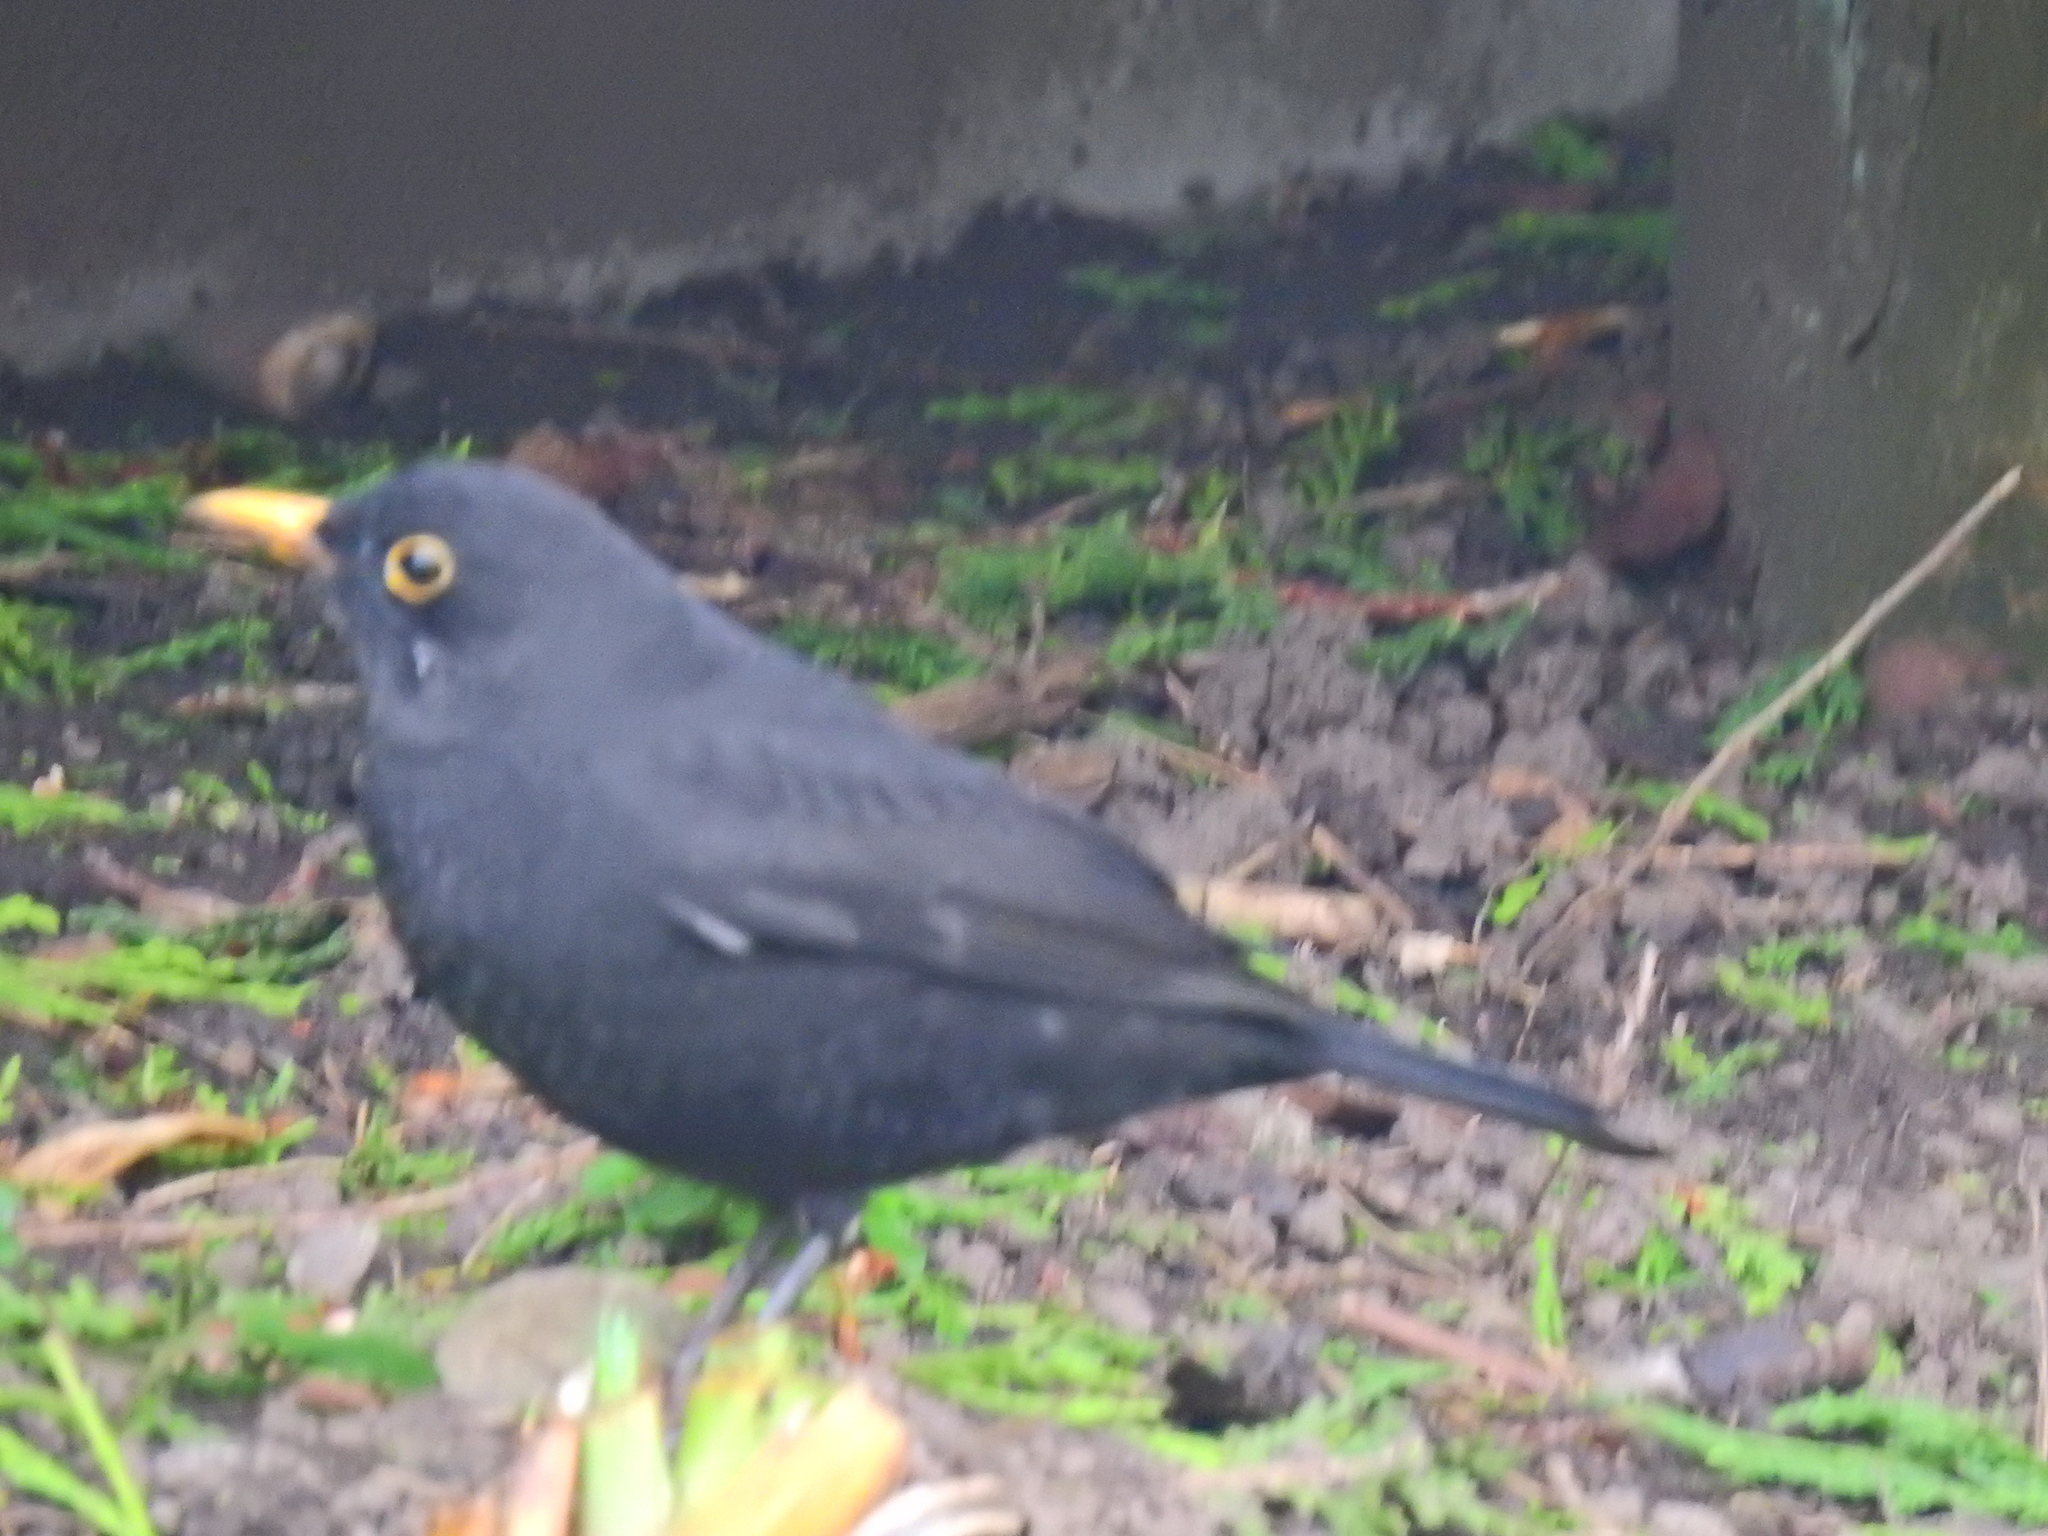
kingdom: Animalia
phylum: Chordata
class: Aves
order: Passeriformes
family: Turdidae
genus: Turdus
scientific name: Turdus merula
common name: Common blackbird
